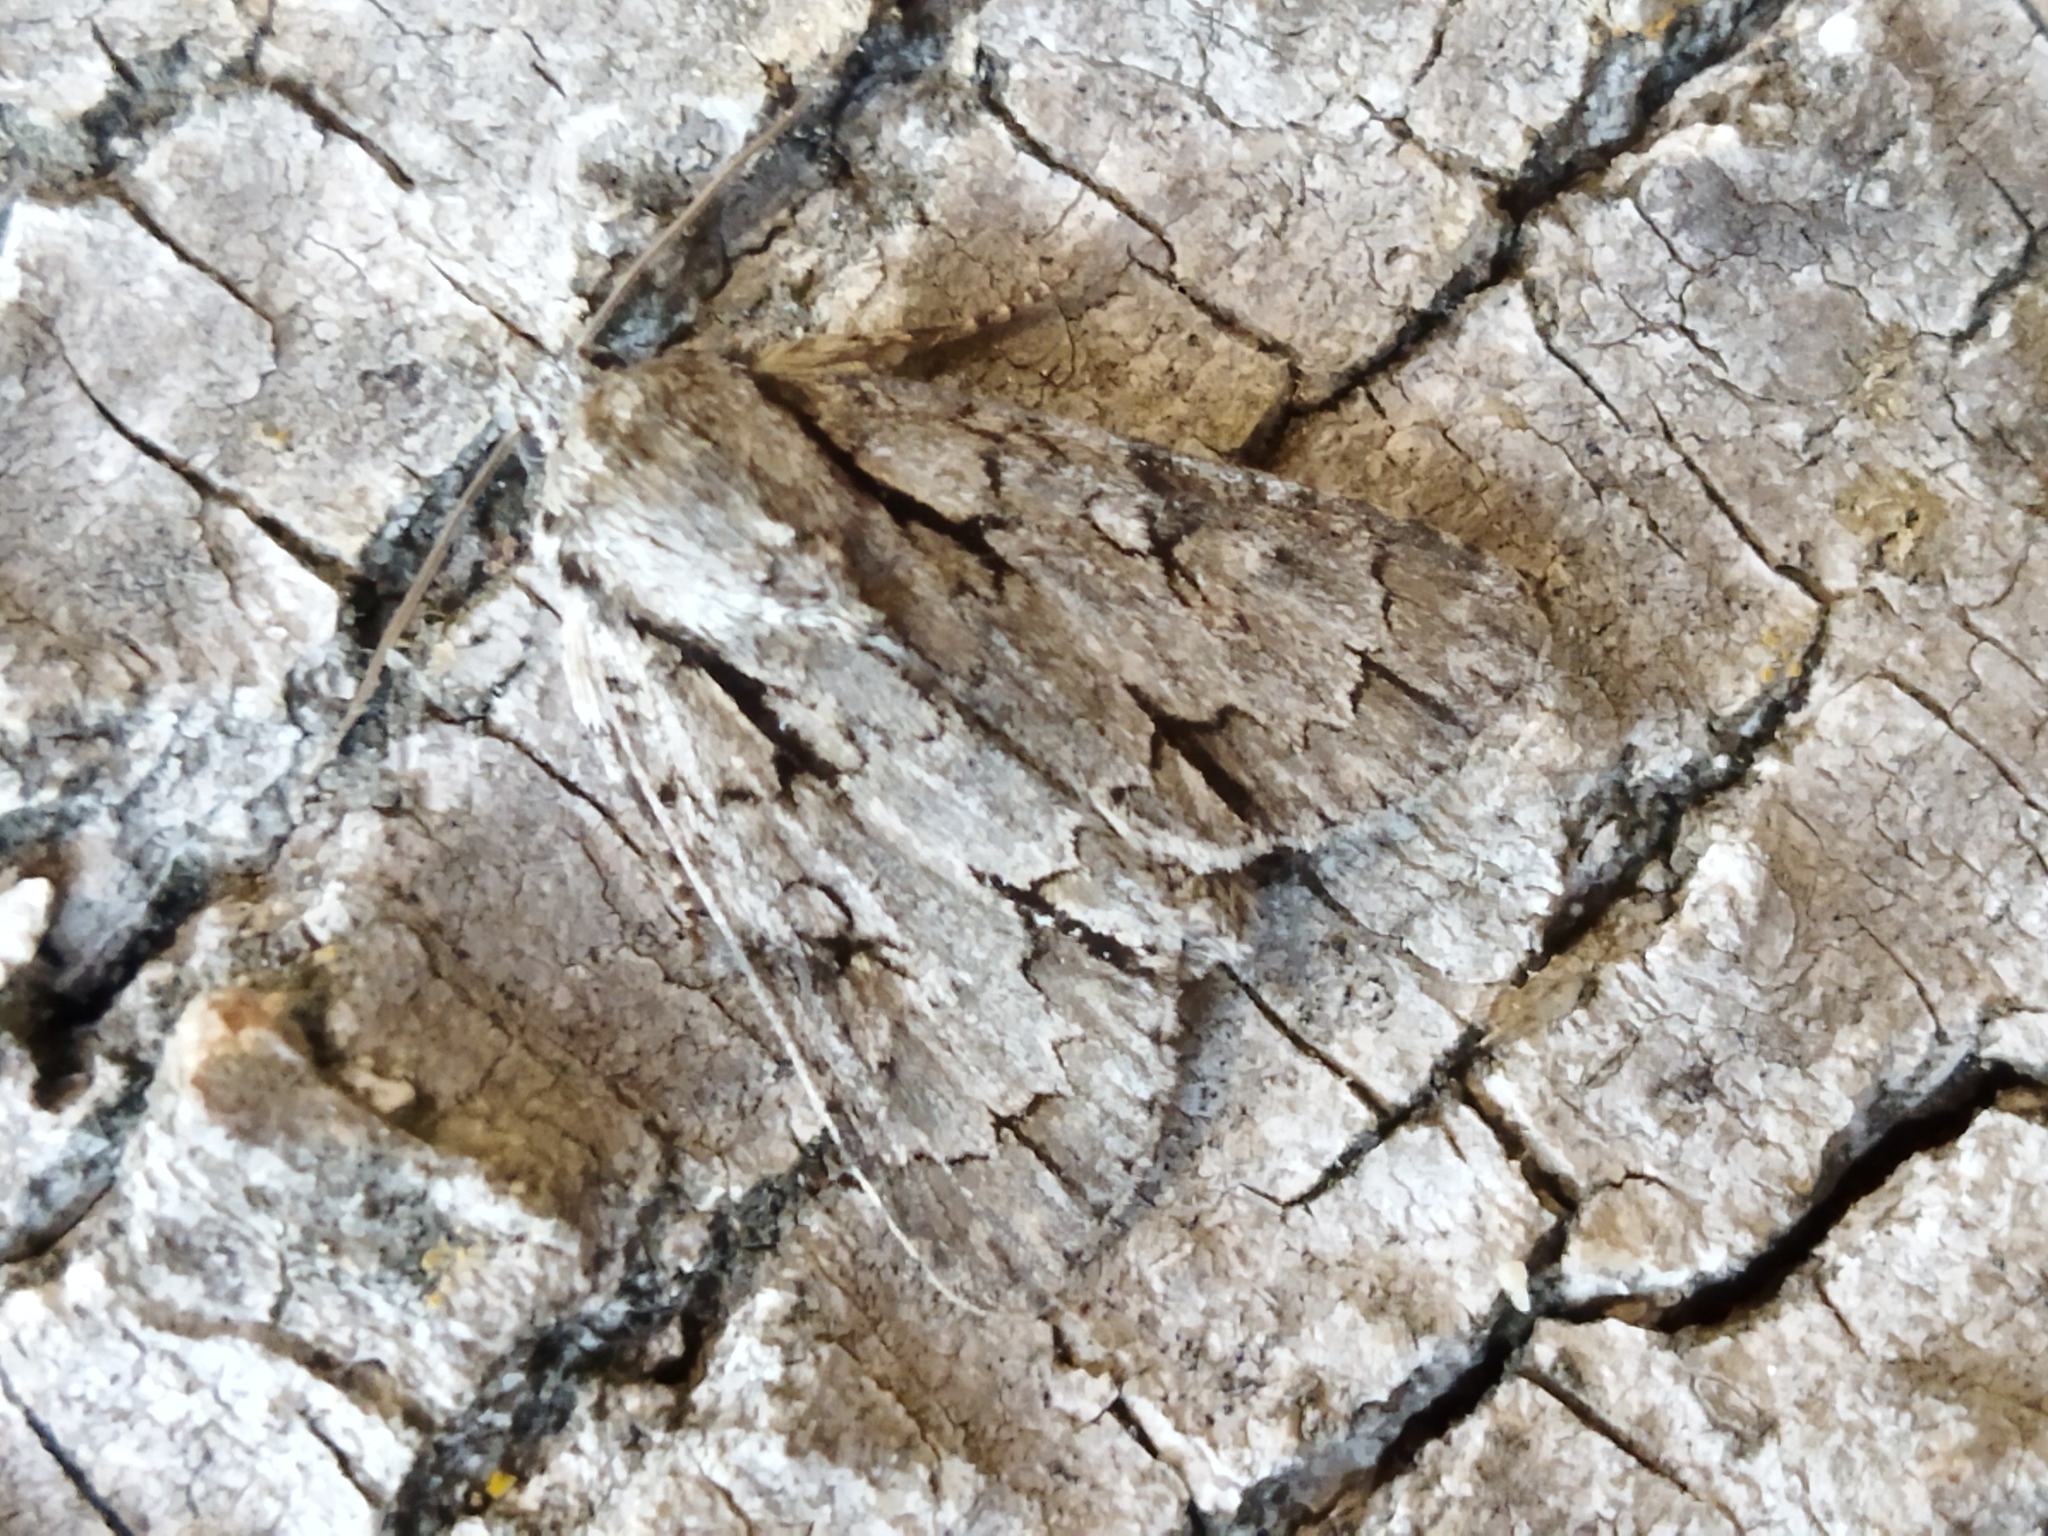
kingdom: Animalia
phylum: Arthropoda
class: Insecta
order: Lepidoptera
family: Noctuidae
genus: Acronicta
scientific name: Acronicta
